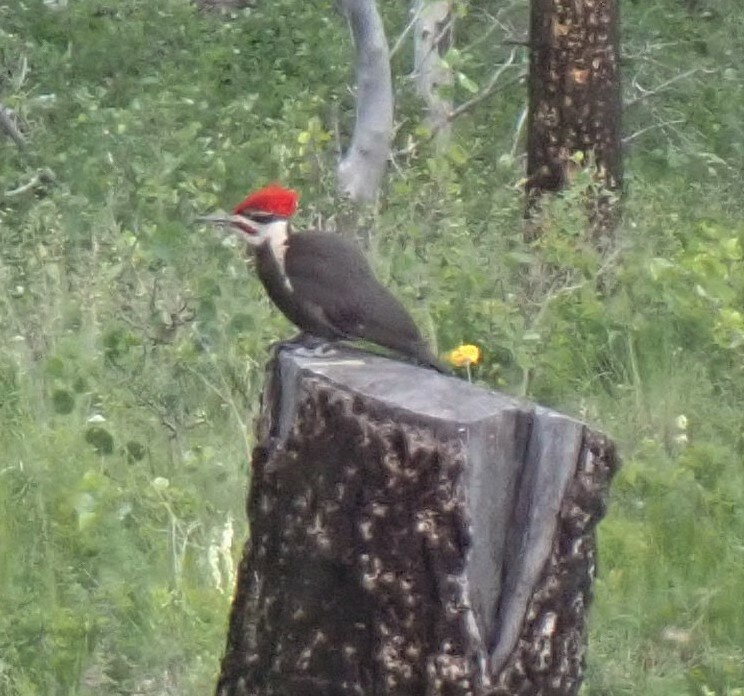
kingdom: Animalia
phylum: Chordata
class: Aves
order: Piciformes
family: Picidae
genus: Dryocopus
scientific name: Dryocopus pileatus
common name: Pileated woodpecker
